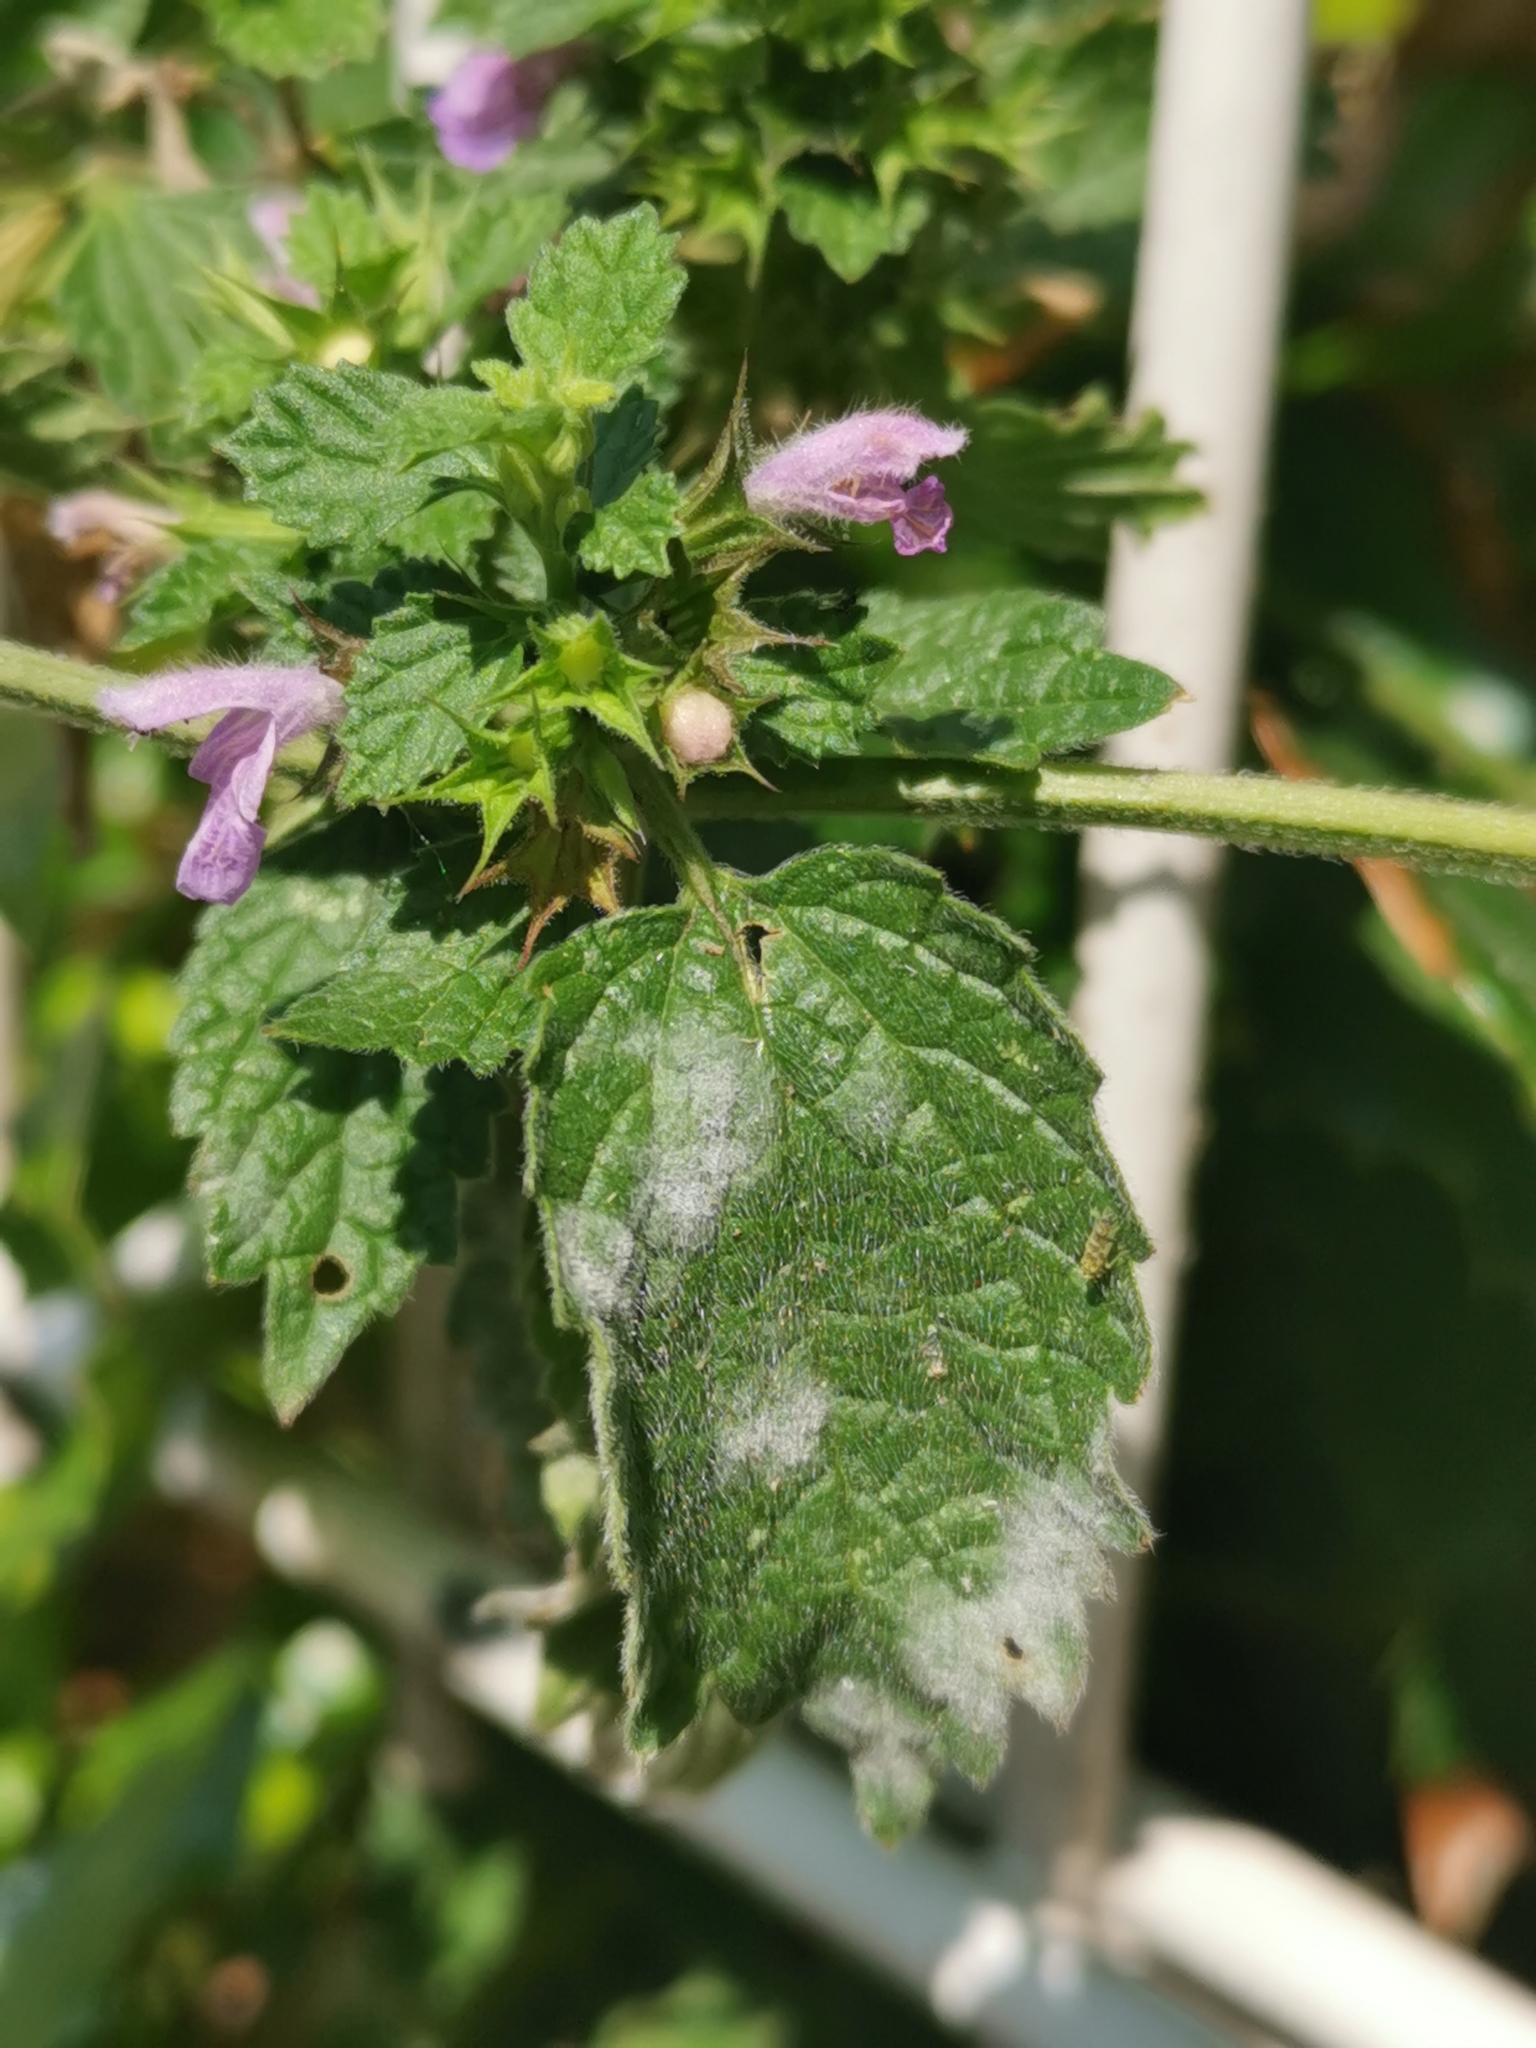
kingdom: Plantae
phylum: Tracheophyta
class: Magnoliopsida
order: Lamiales
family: Lamiaceae
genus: Ballota
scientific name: Ballota nigra
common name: Black horehound
